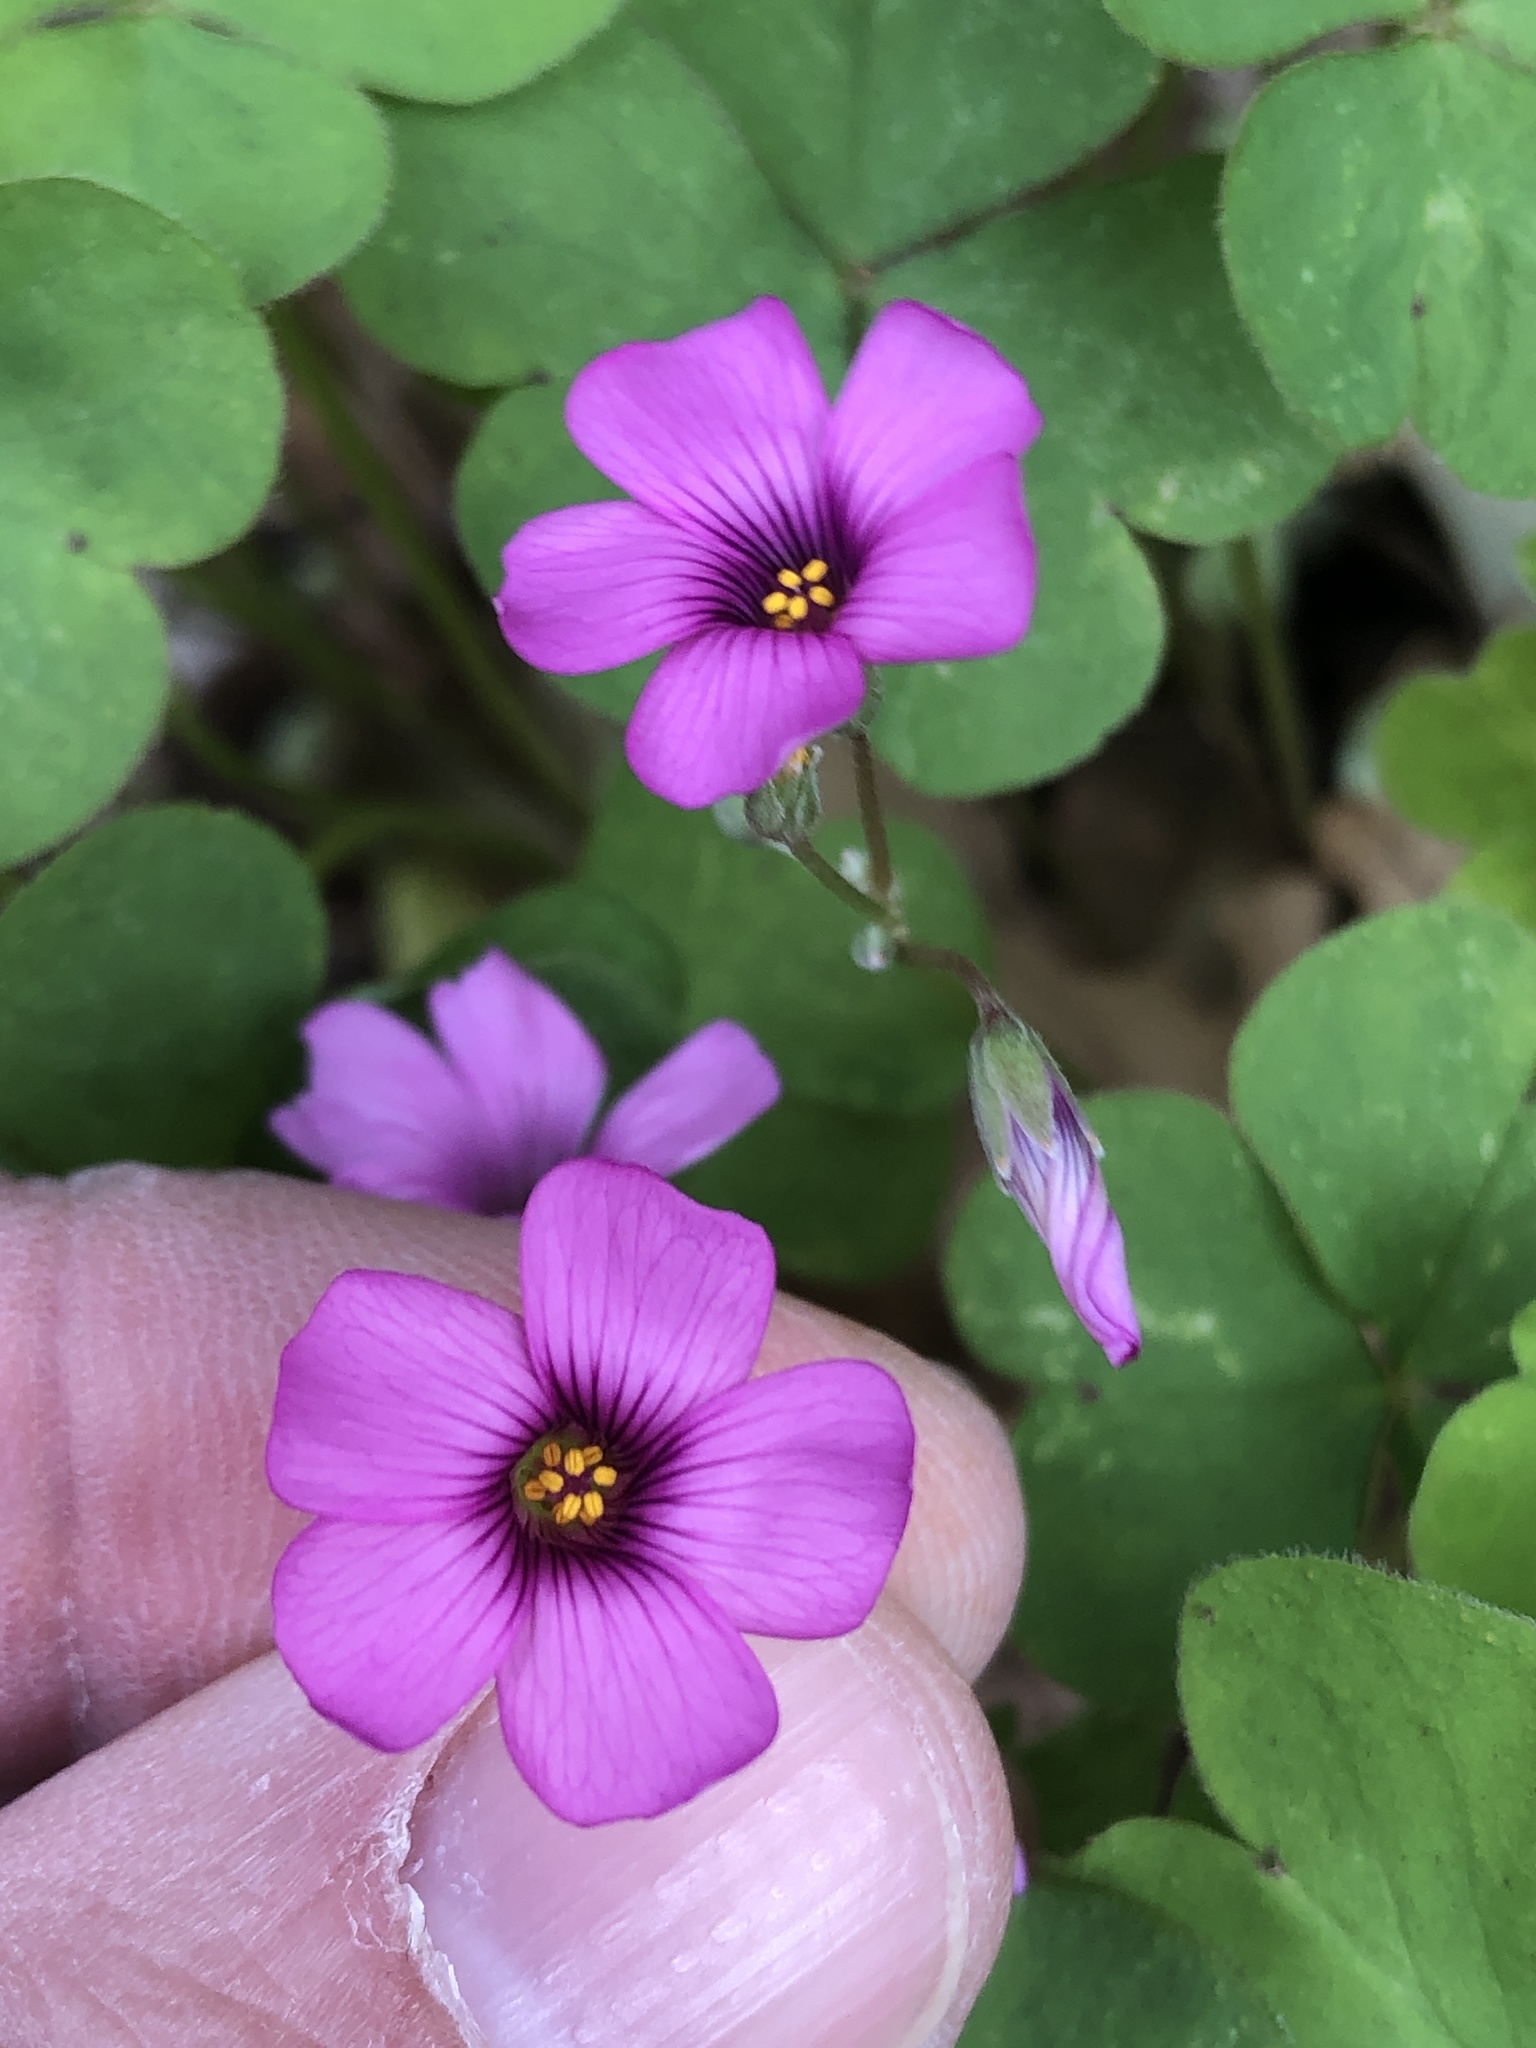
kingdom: Plantae
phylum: Tracheophyta
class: Magnoliopsida
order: Oxalidales
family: Oxalidaceae
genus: Oxalis
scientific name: Oxalis articulata
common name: Pink-sorrel
